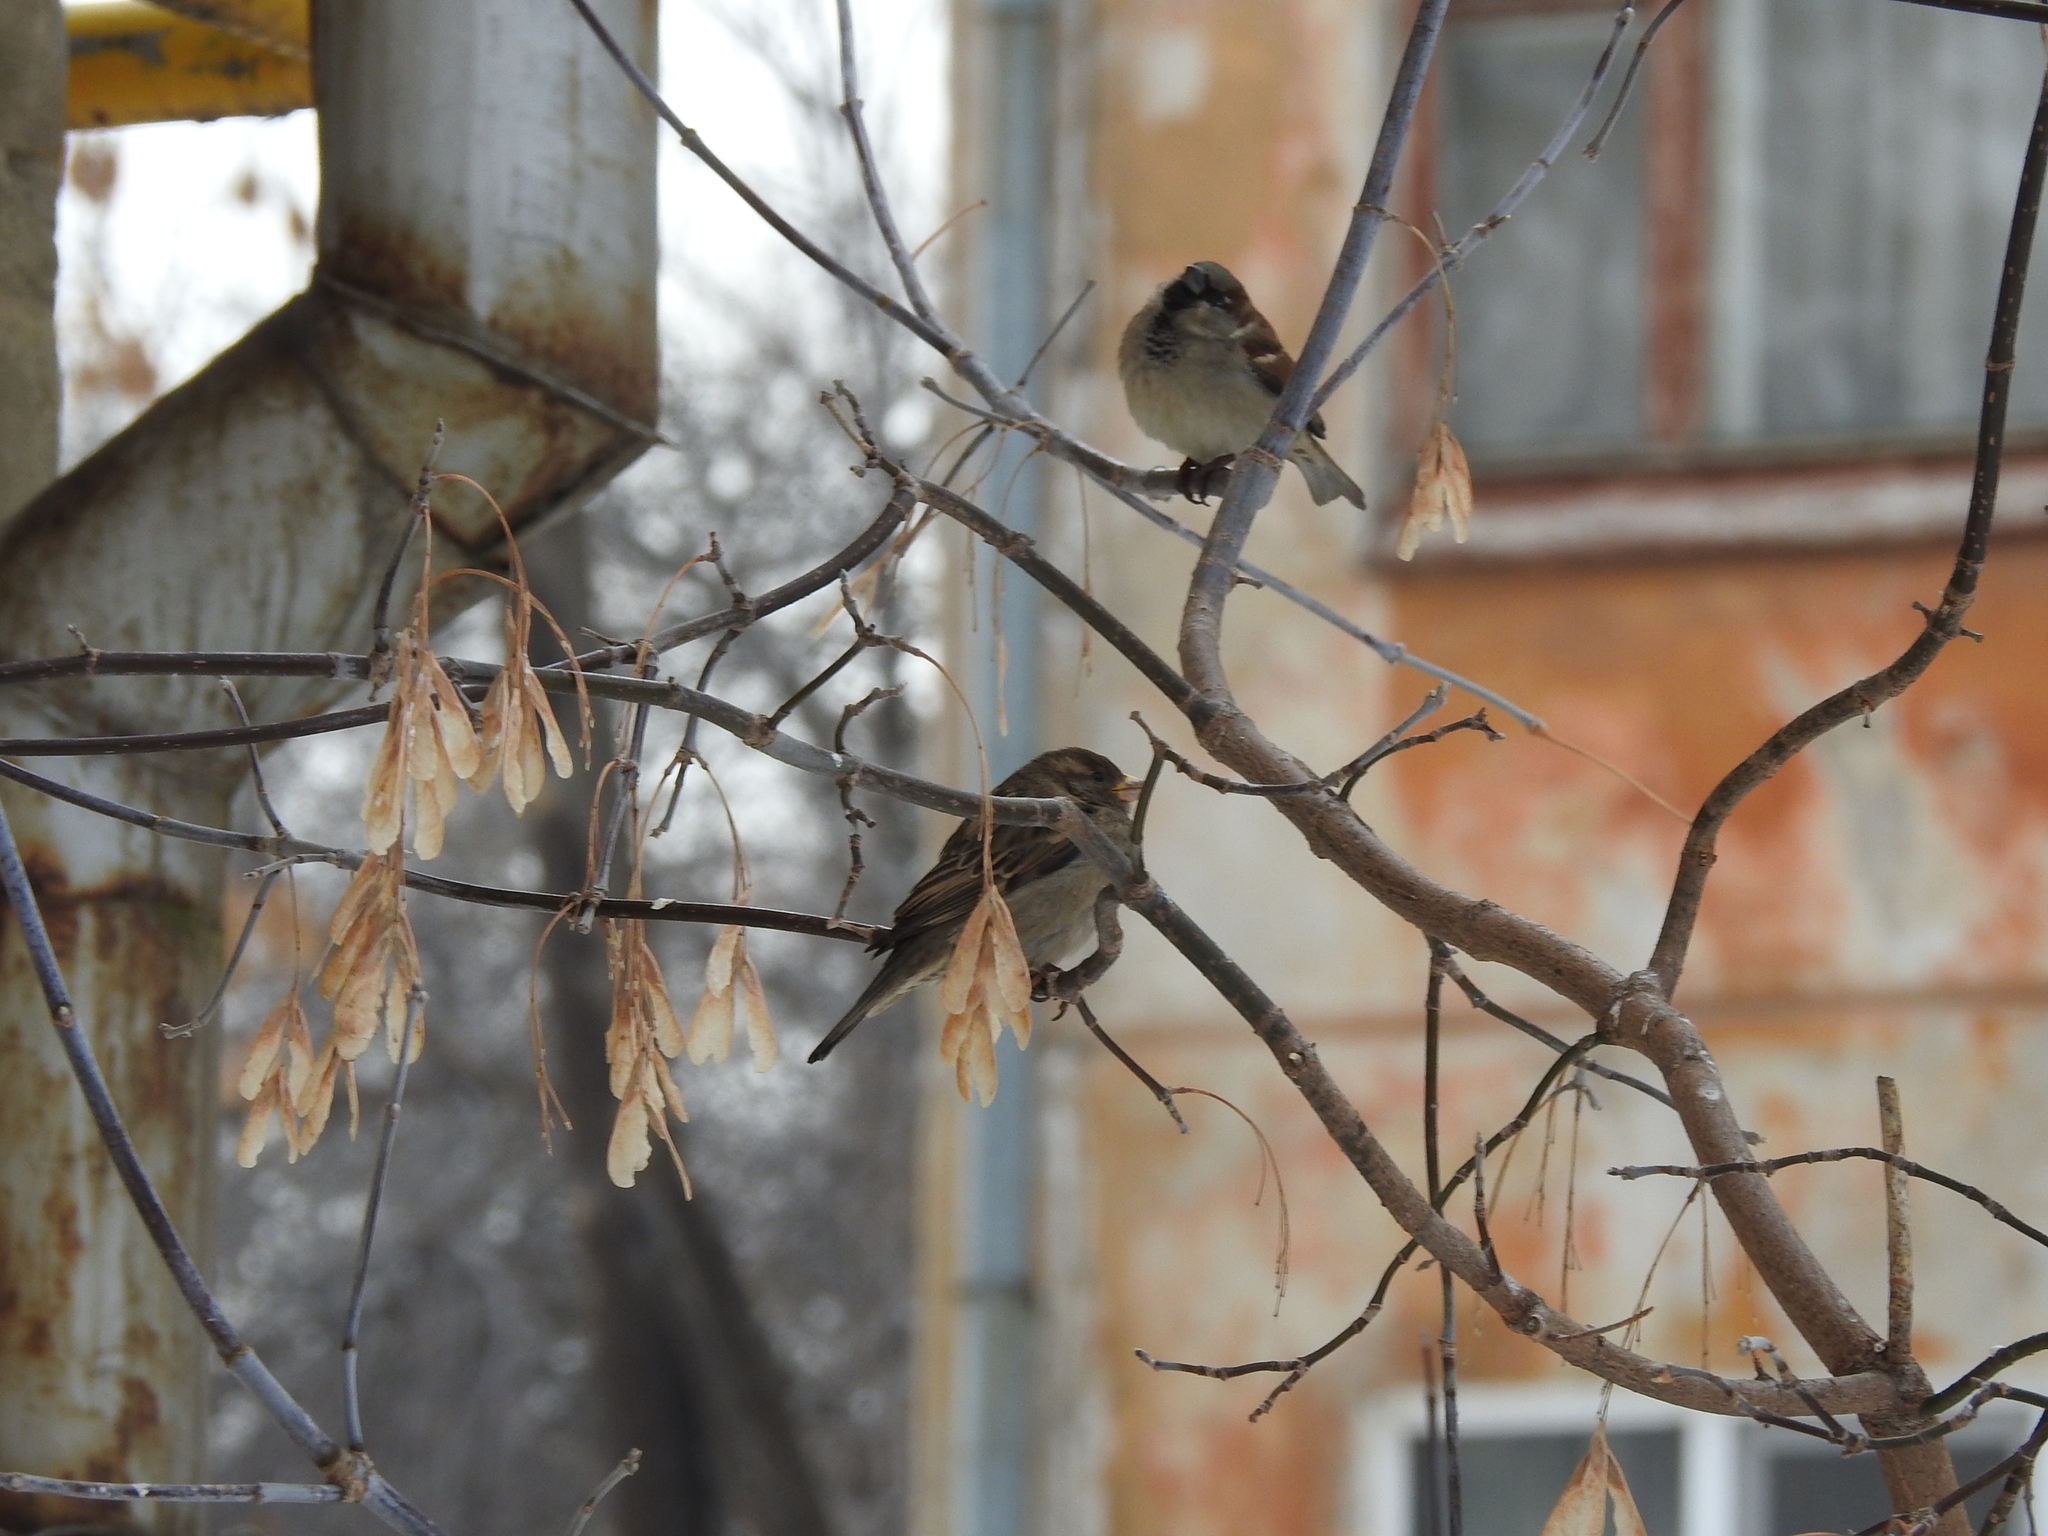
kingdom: Animalia
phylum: Chordata
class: Aves
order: Passeriformes
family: Passeridae
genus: Passer
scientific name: Passer domesticus
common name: House sparrow
